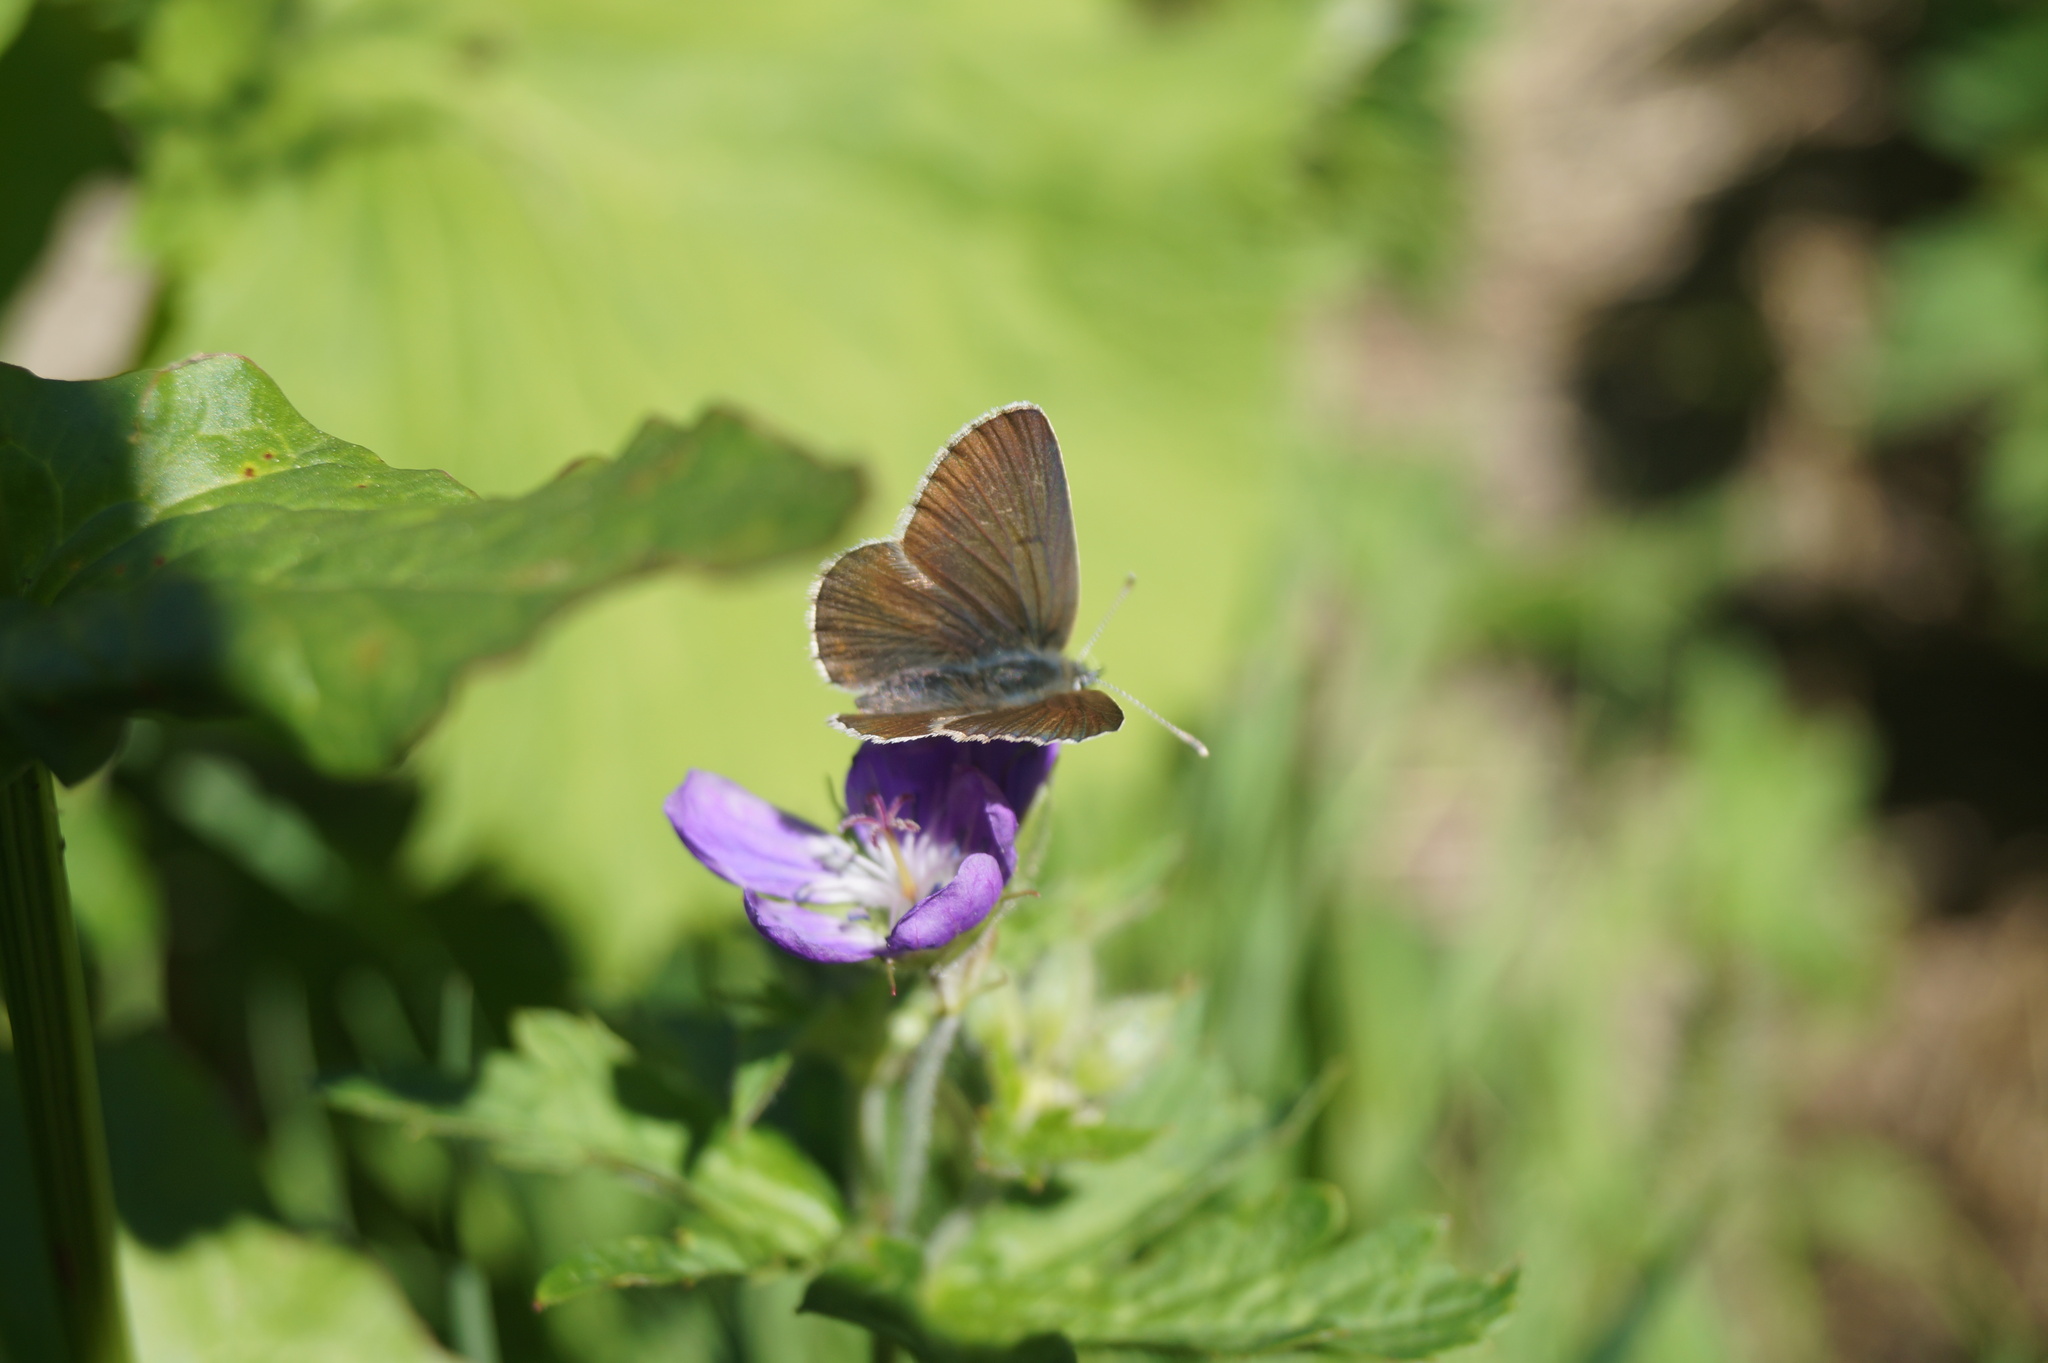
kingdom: Animalia
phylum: Arthropoda
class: Insecta
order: Lepidoptera
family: Lycaenidae
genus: Eumedonia
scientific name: Eumedonia eumedon
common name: Geranium argus
